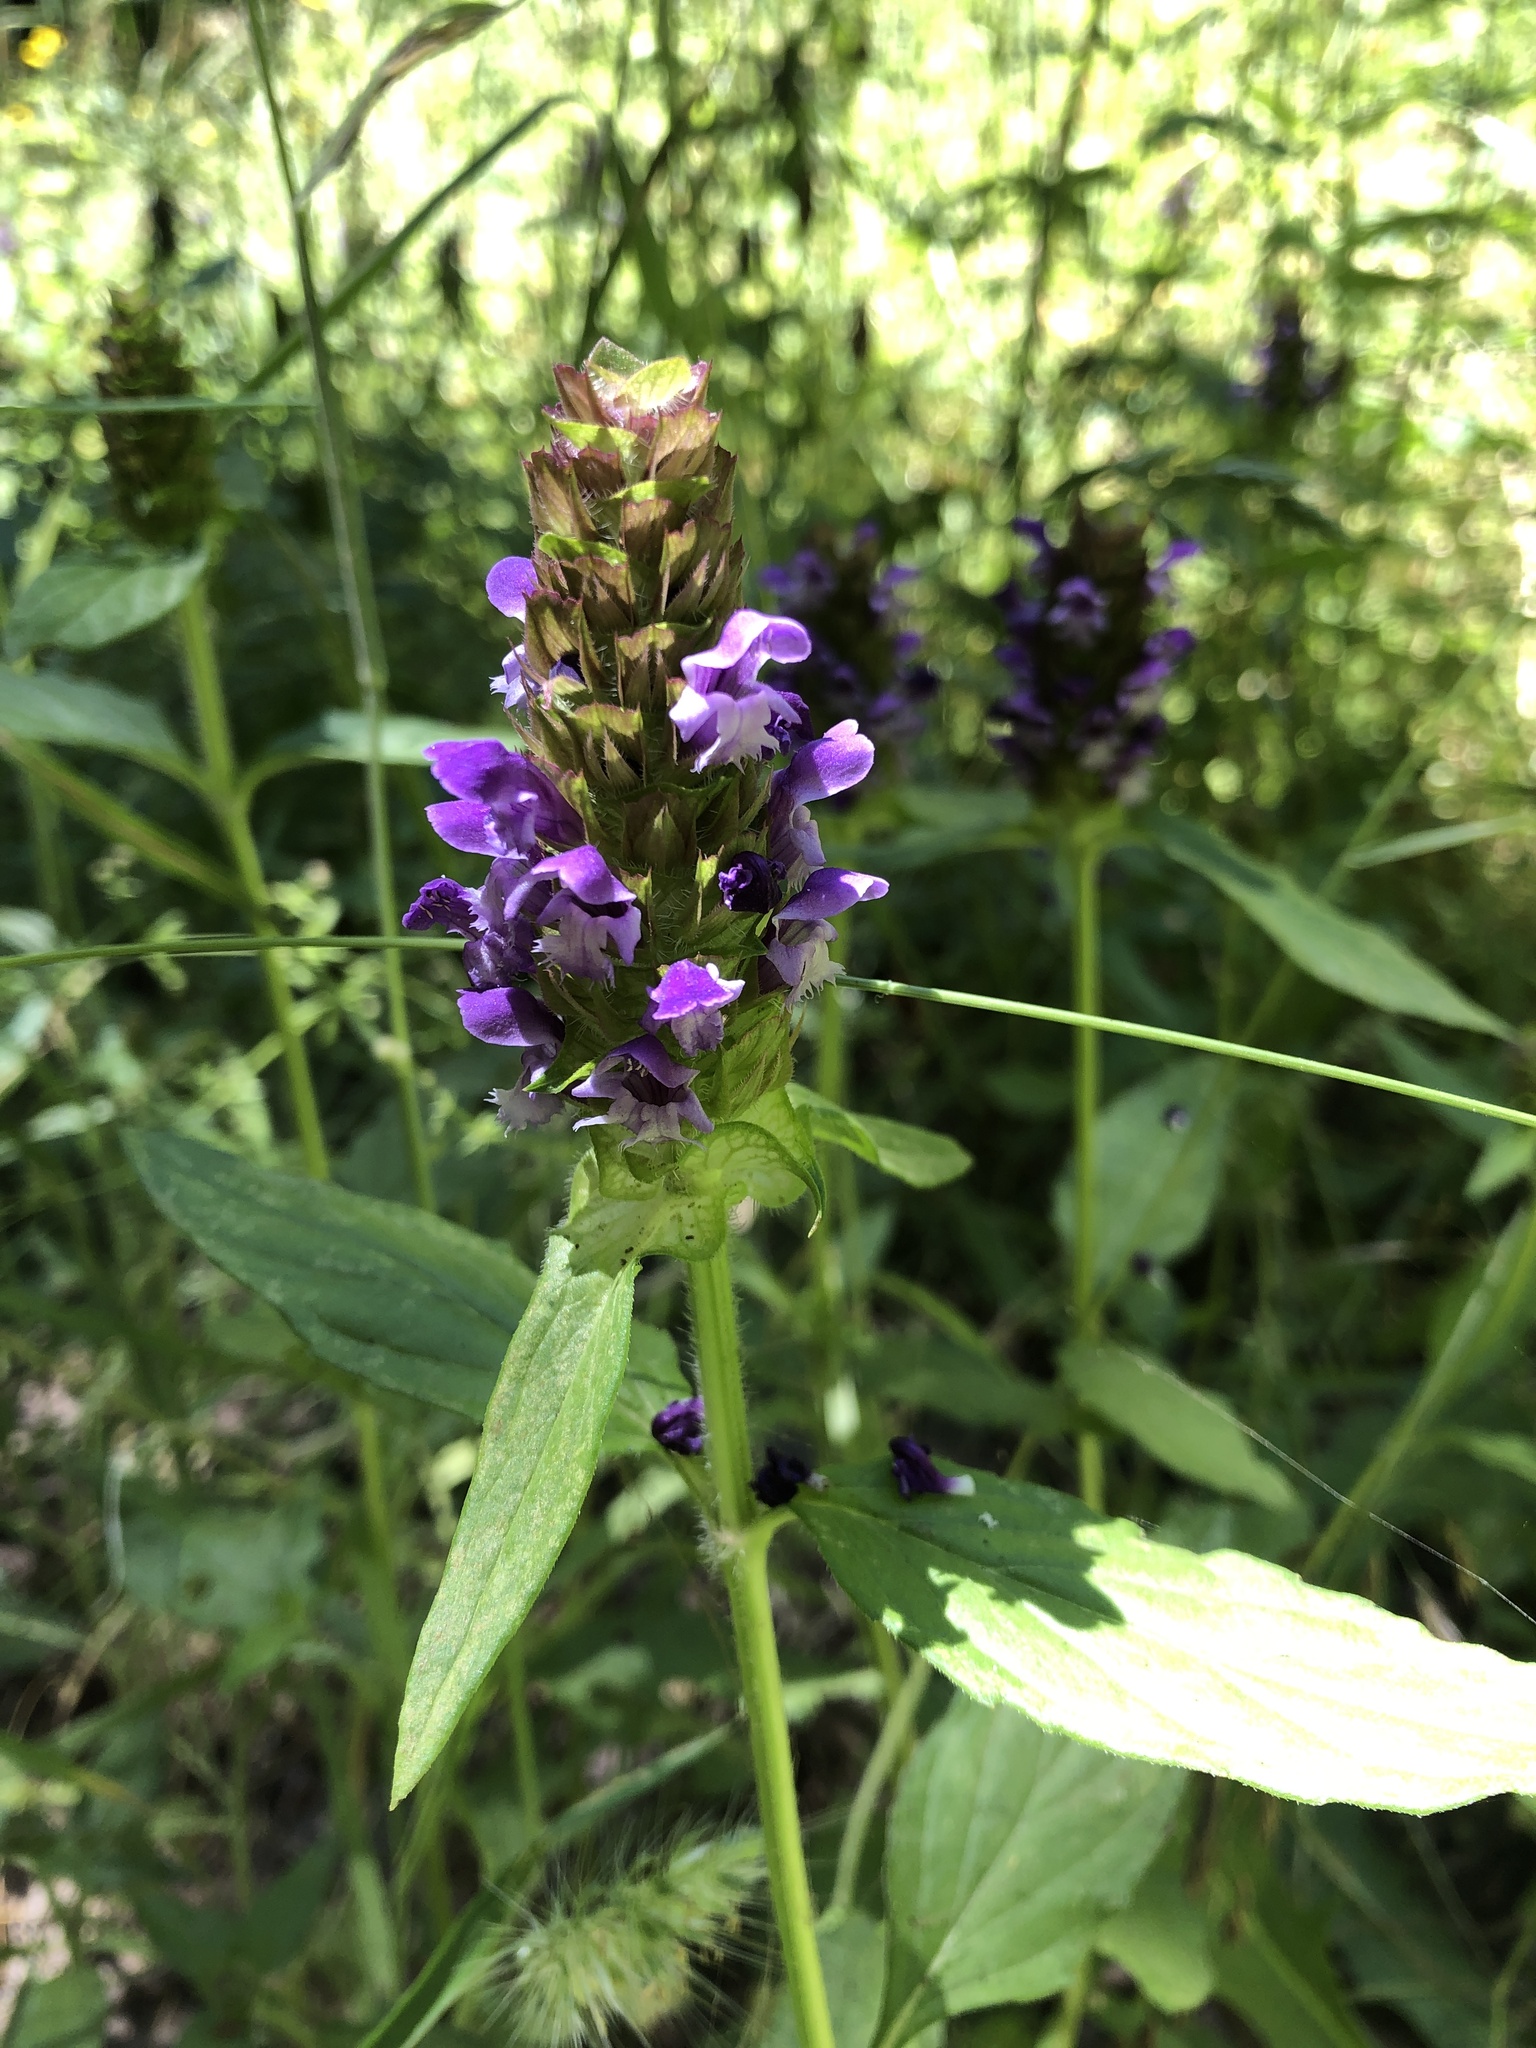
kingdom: Plantae
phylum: Tracheophyta
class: Magnoliopsida
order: Lamiales
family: Lamiaceae
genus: Prunella
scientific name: Prunella vulgaris
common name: Heal-all
